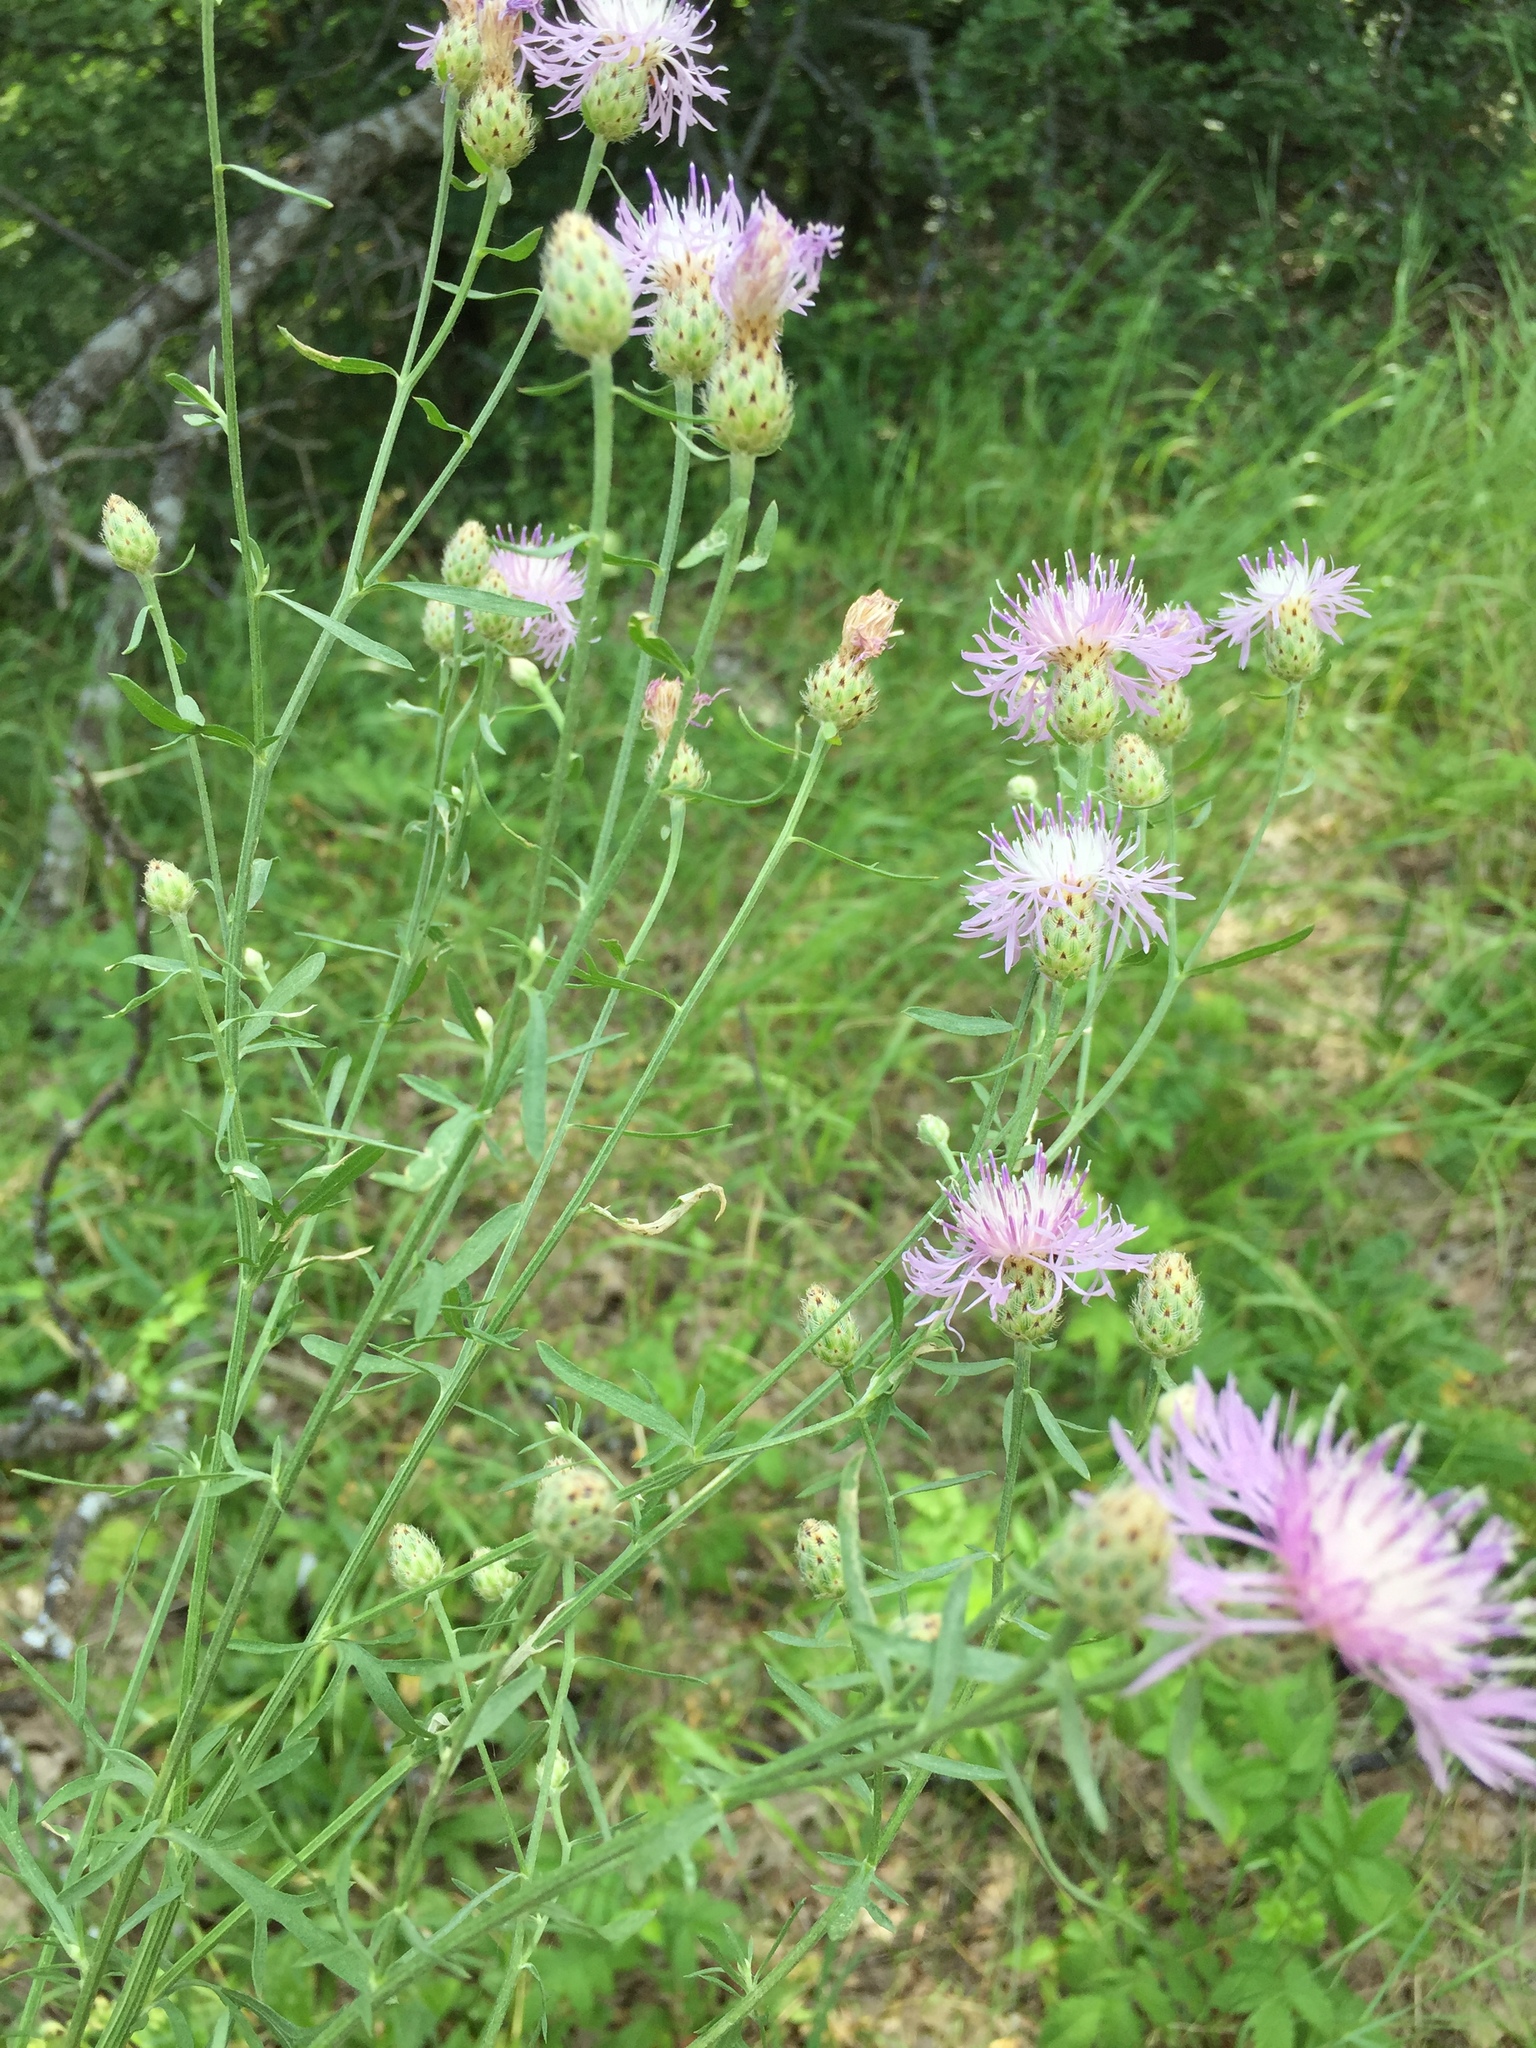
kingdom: Plantae
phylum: Tracheophyta
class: Magnoliopsida
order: Asterales
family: Asteraceae
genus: Centaurea
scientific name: Centaurea stoebe
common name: Spotted knapweed
